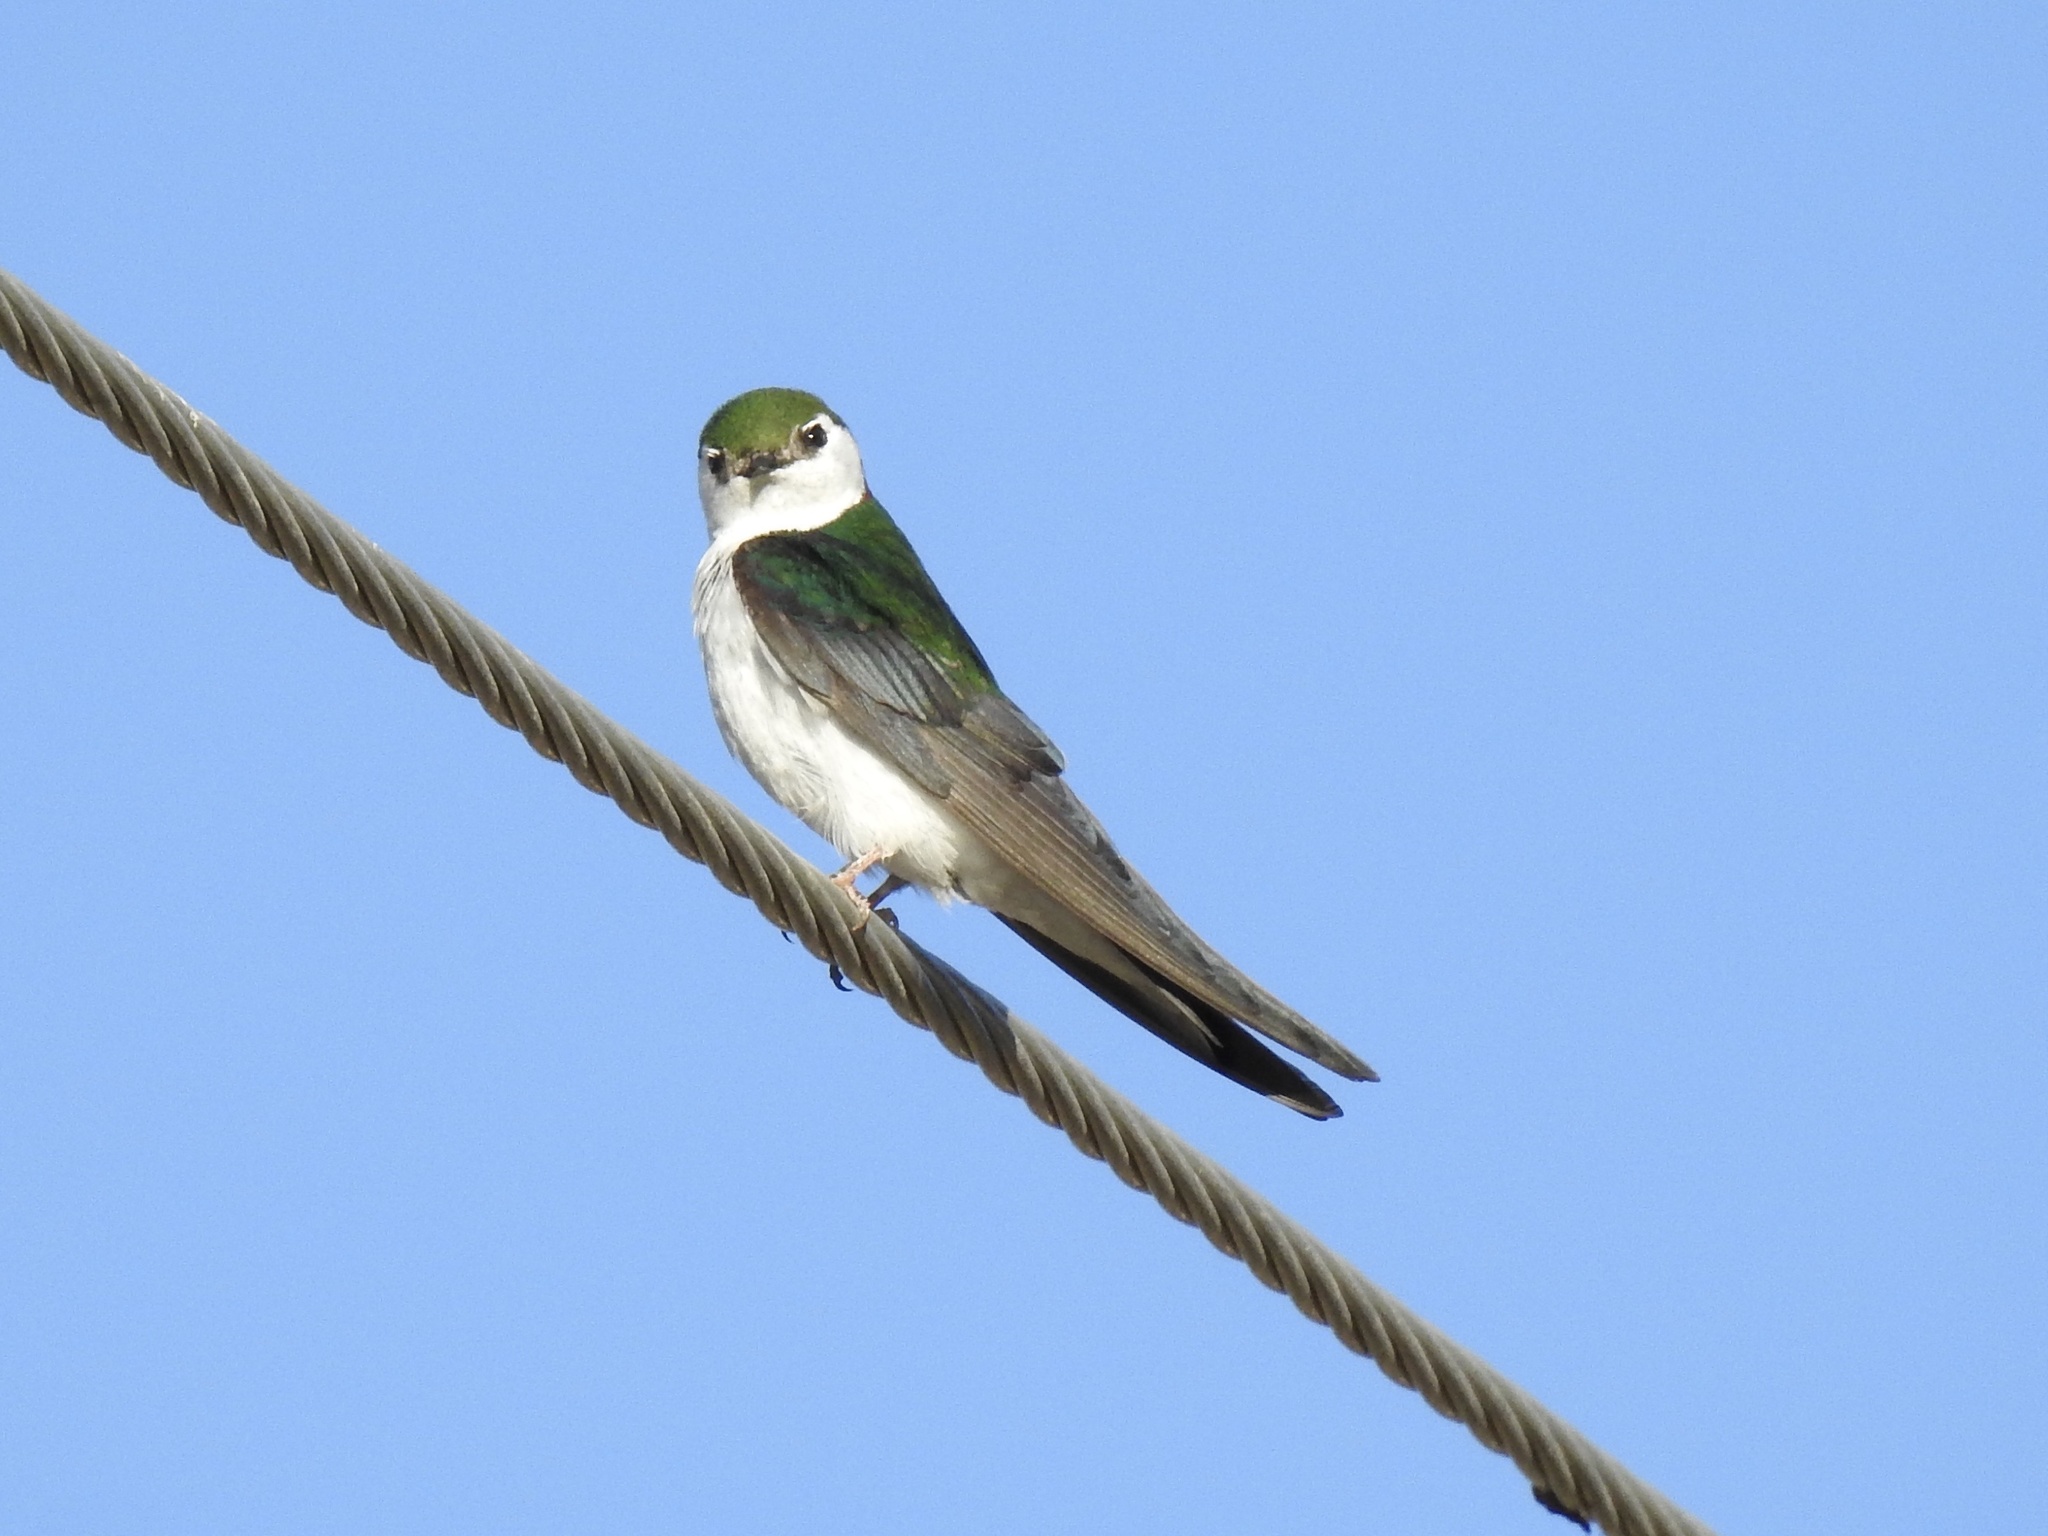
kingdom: Animalia
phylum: Chordata
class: Aves
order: Passeriformes
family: Hirundinidae
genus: Tachycineta
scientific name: Tachycineta thalassina
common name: Violet-green swallow
